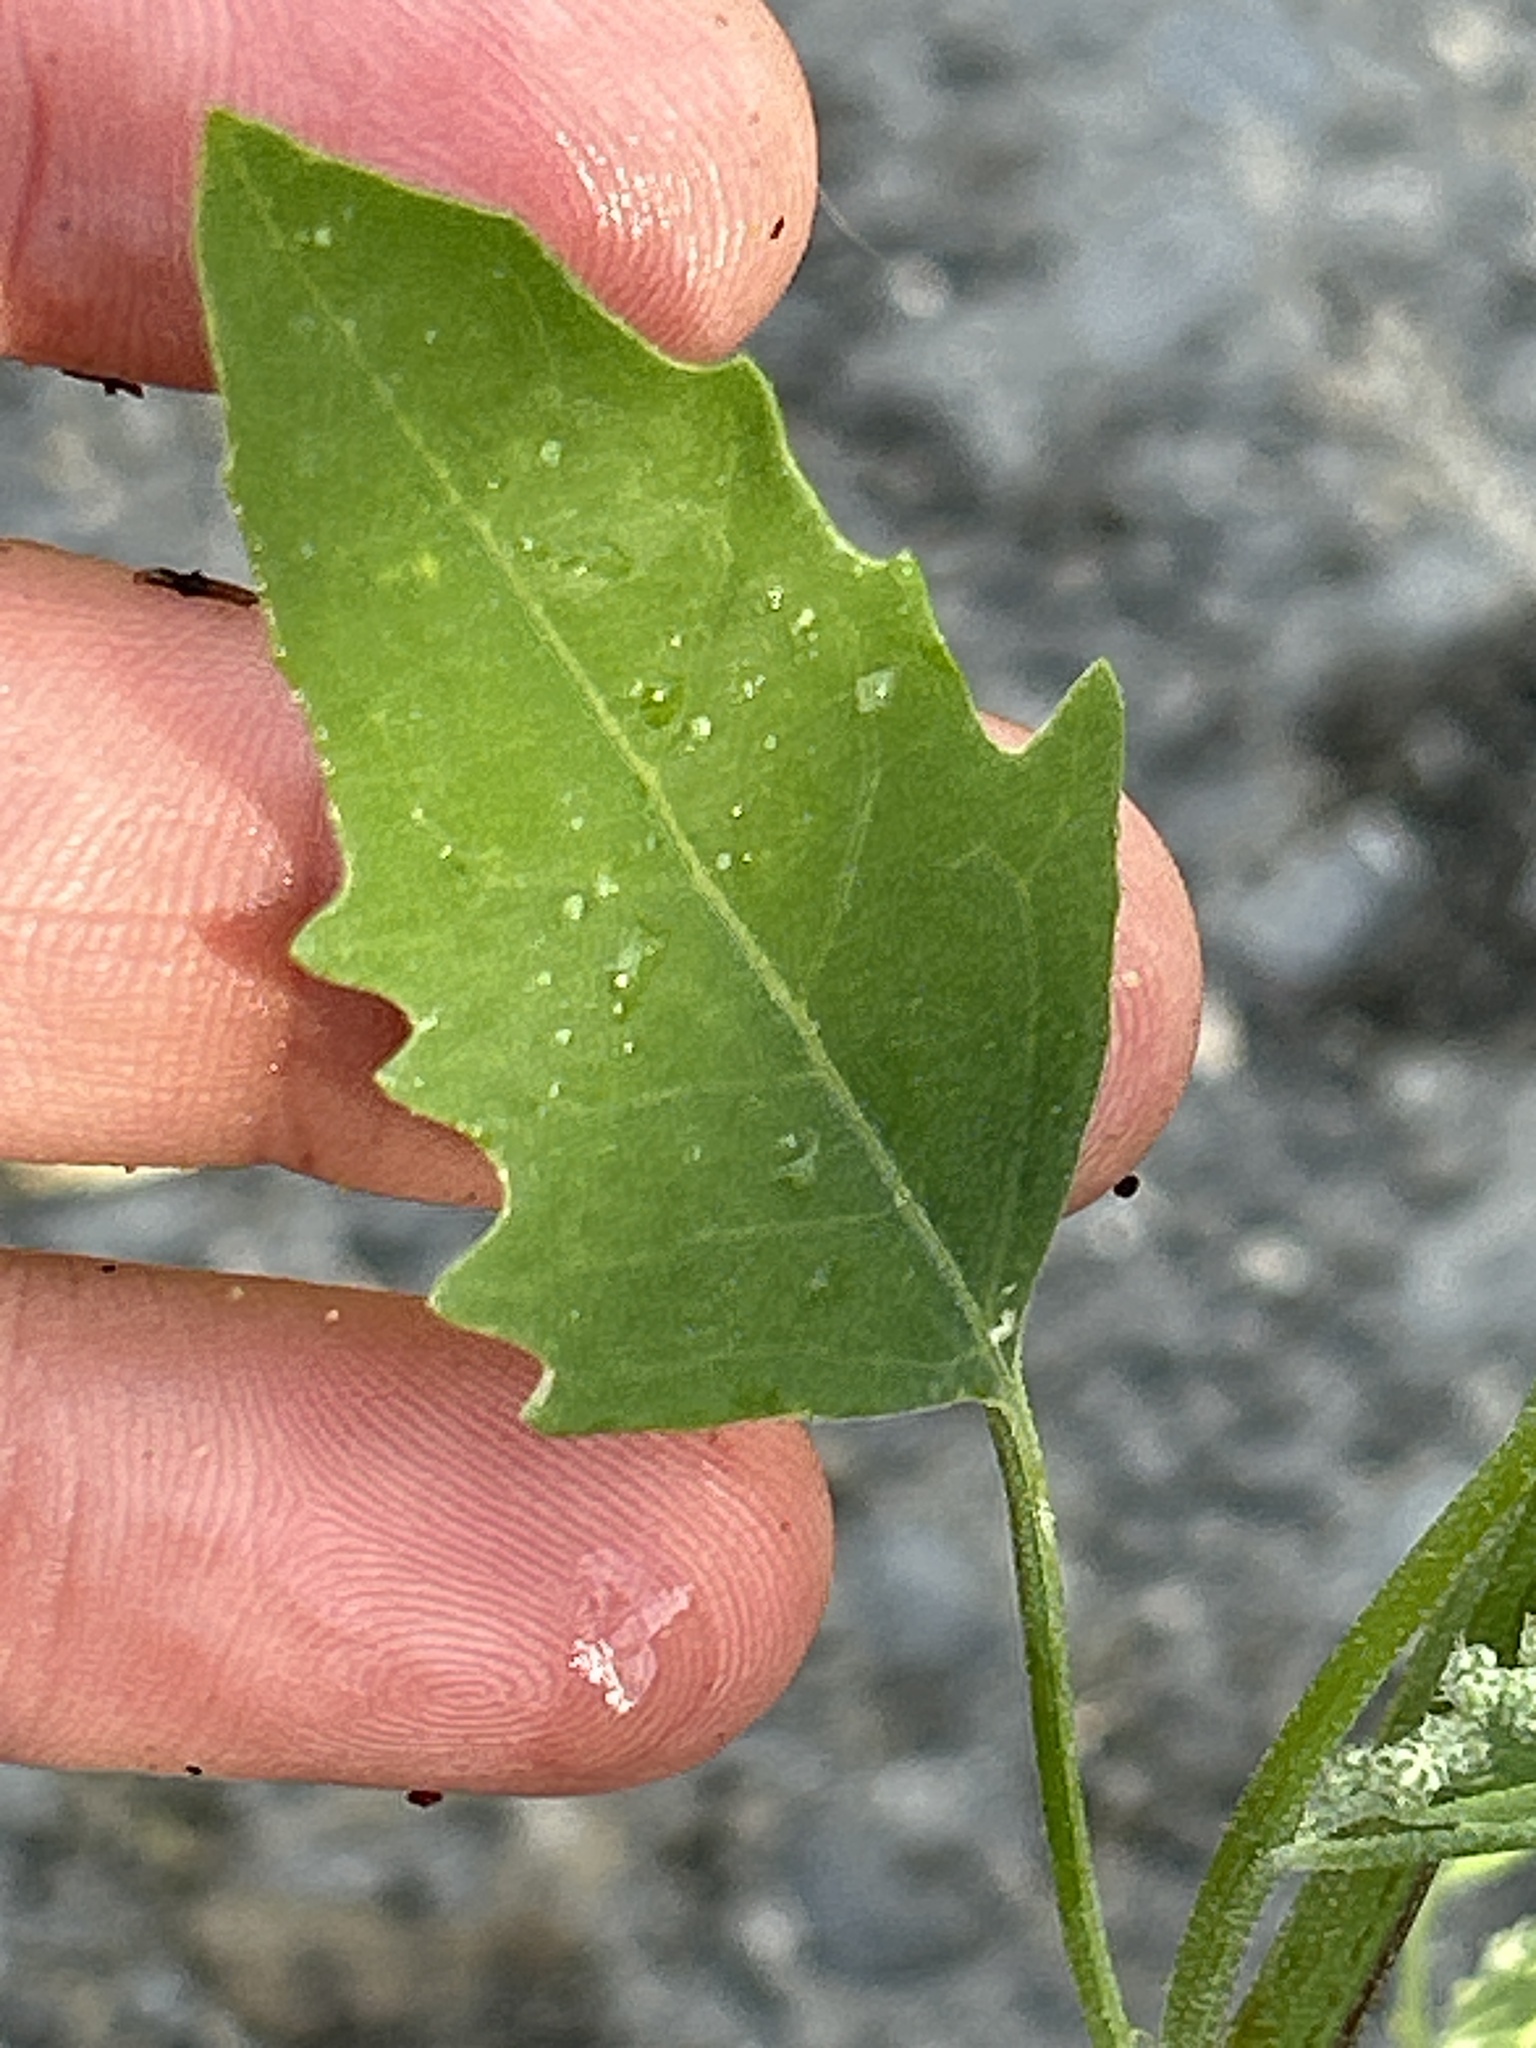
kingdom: Plantae
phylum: Tracheophyta
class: Magnoliopsida
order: Caryophyllales
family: Amaranthaceae
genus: Chenopodium
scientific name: Chenopodium album
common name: Fat-hen
